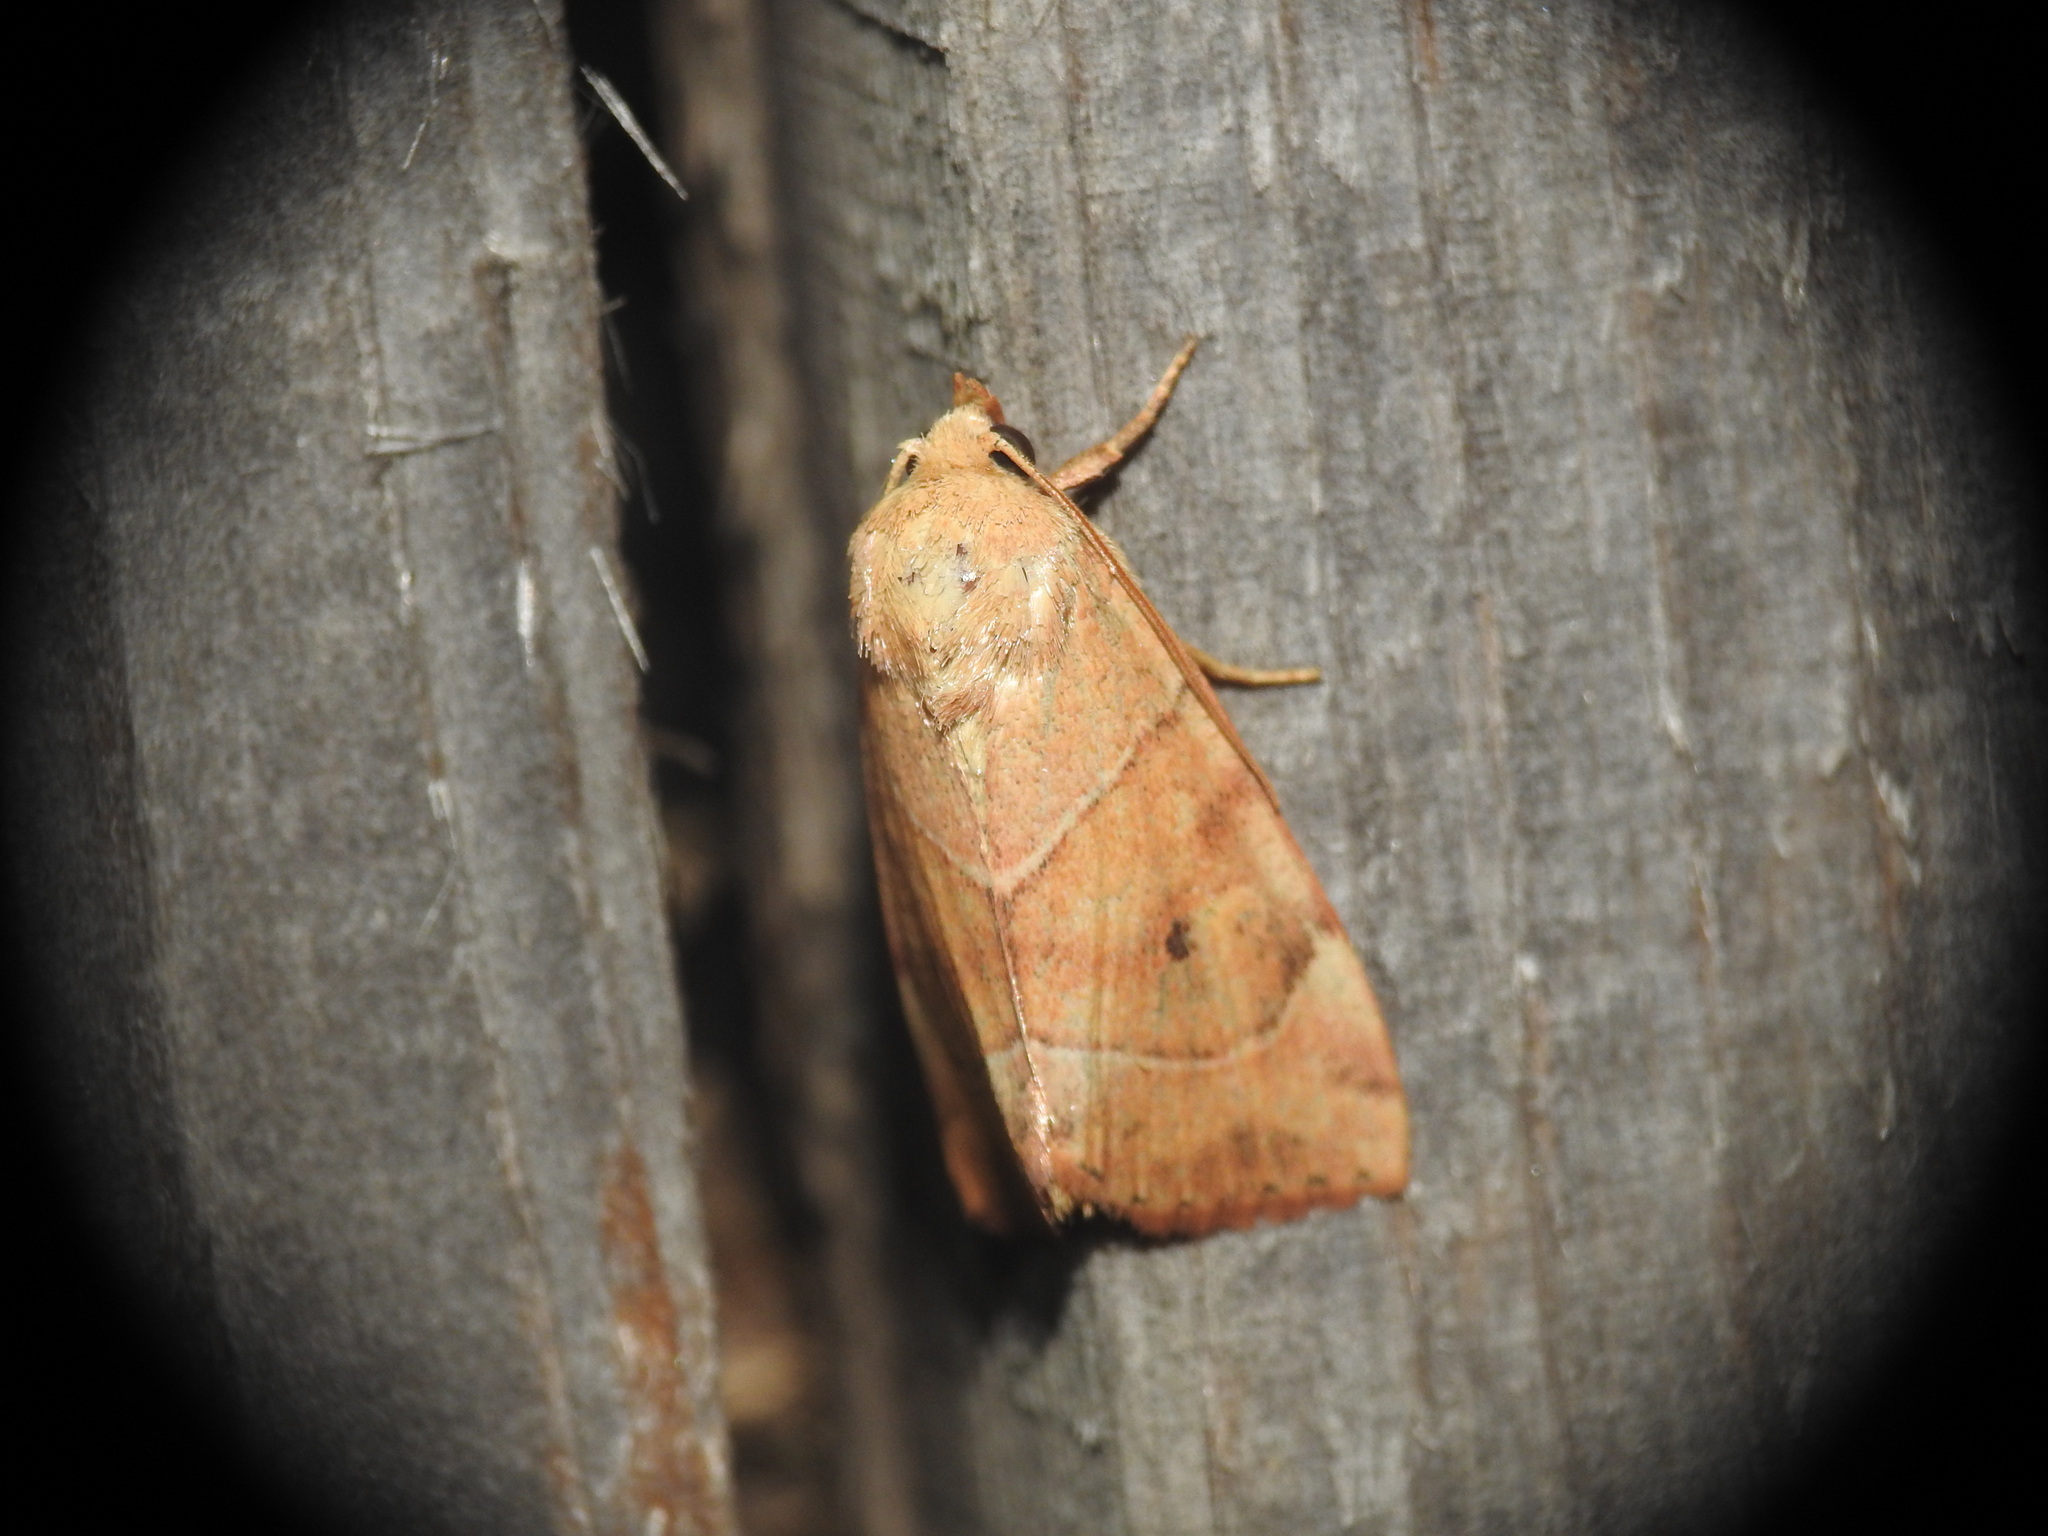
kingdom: Animalia
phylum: Arthropoda
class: Insecta
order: Lepidoptera
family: Noctuidae
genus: Cosmia
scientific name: Cosmia trapezina
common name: Dun-bar
